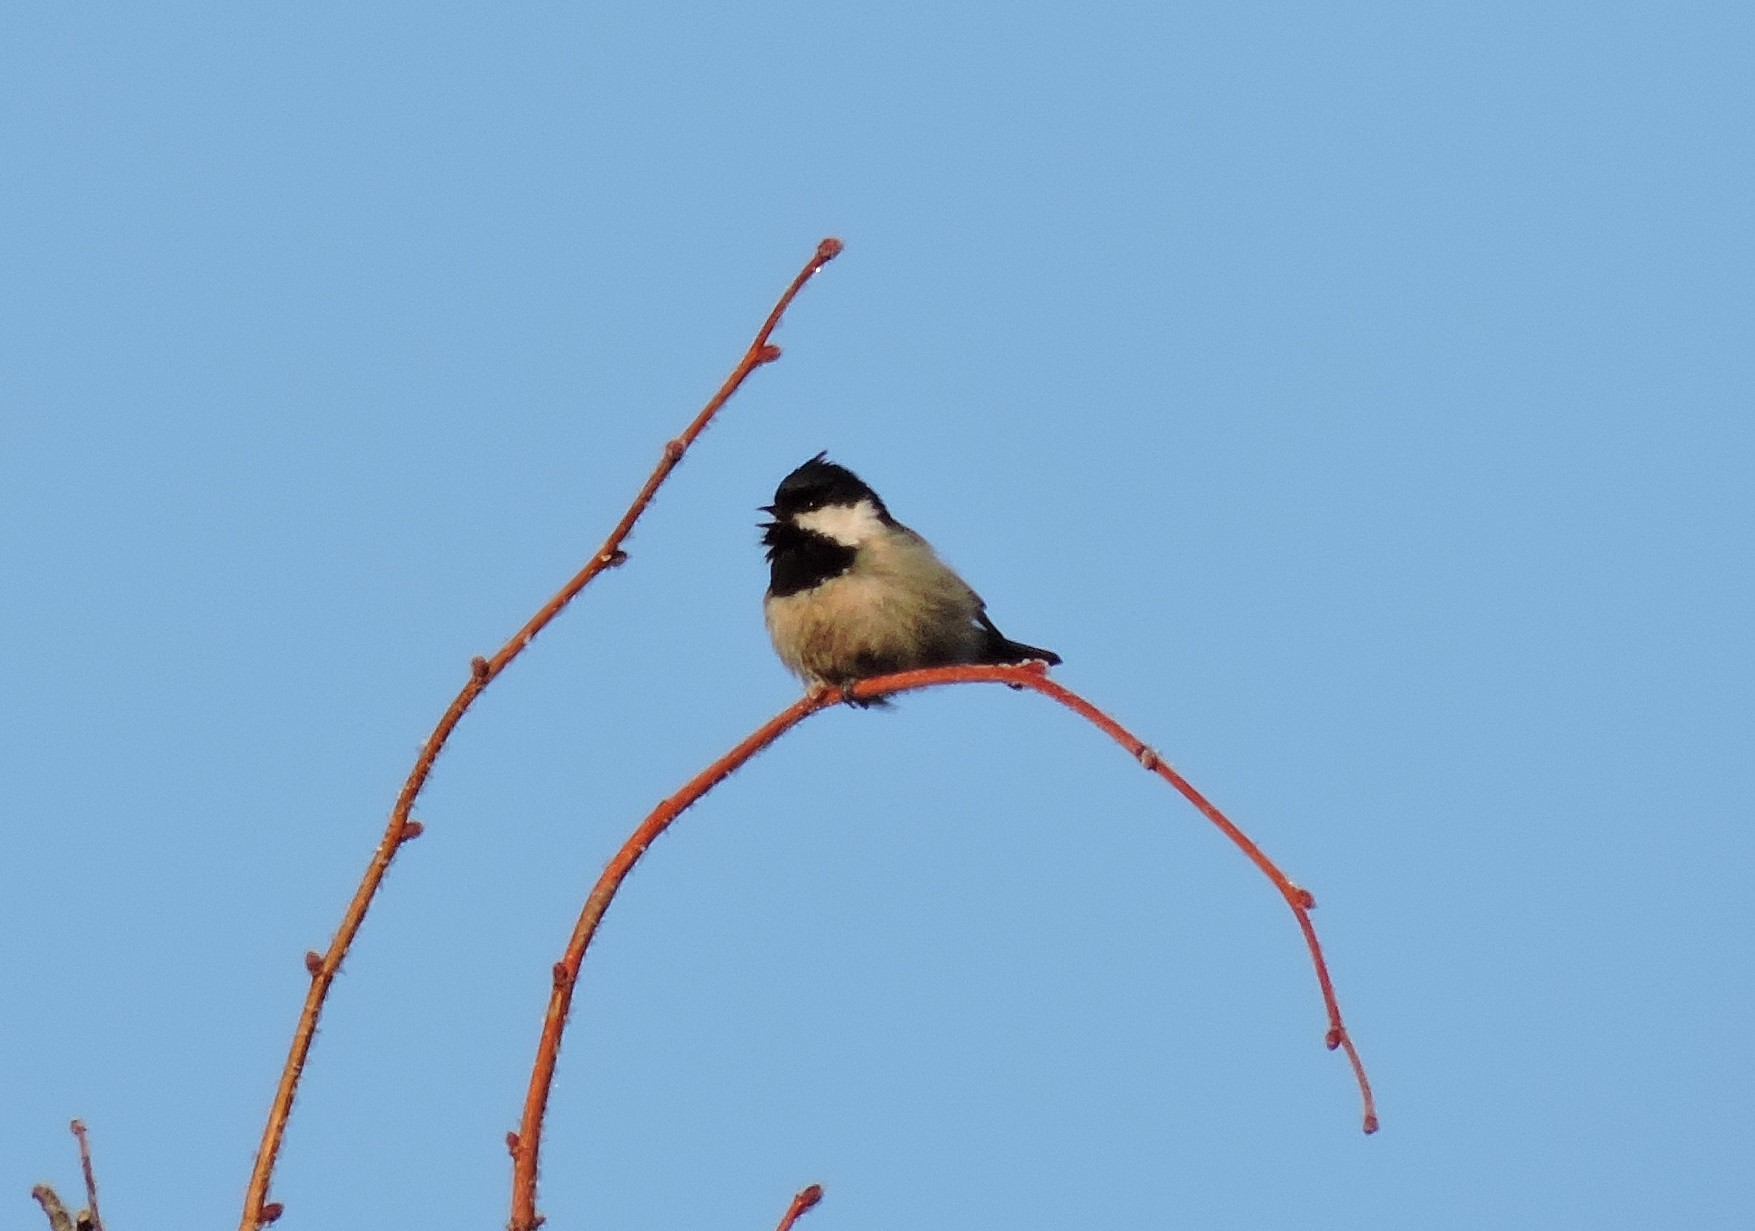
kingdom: Animalia
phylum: Chordata
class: Aves
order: Passeriformes
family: Paridae
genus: Periparus
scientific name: Periparus ater
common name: Coal tit
